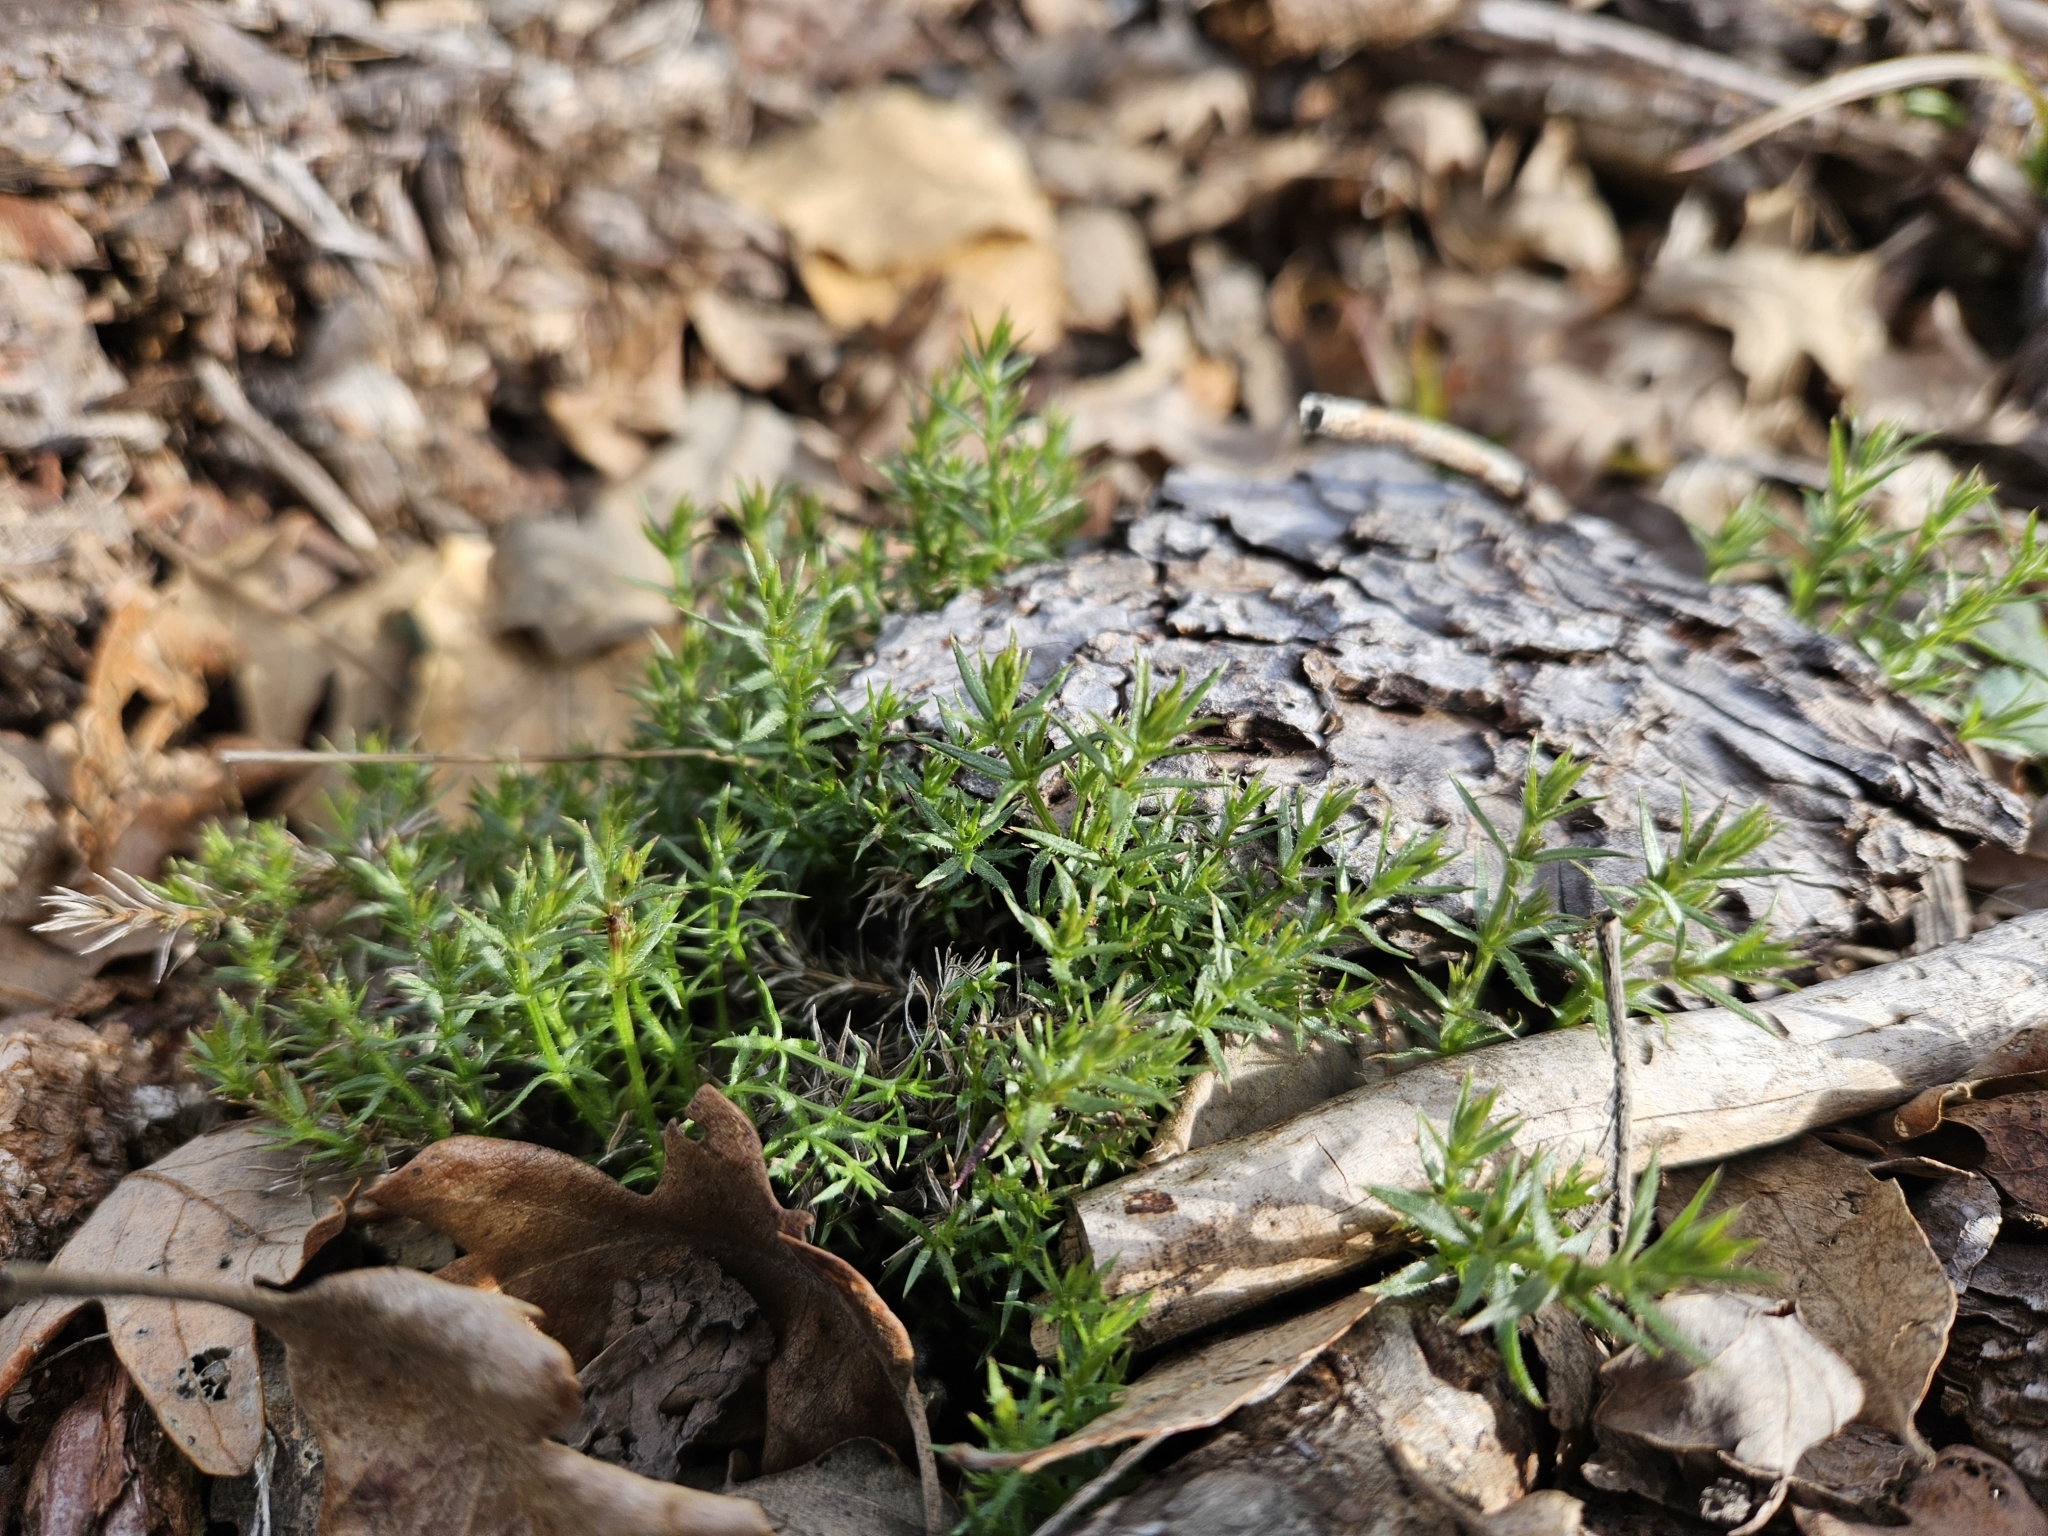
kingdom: Plantae
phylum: Tracheophyta
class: Magnoliopsida
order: Gentianales
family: Rubiaceae
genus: Galium
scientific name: Galium andrewsii
